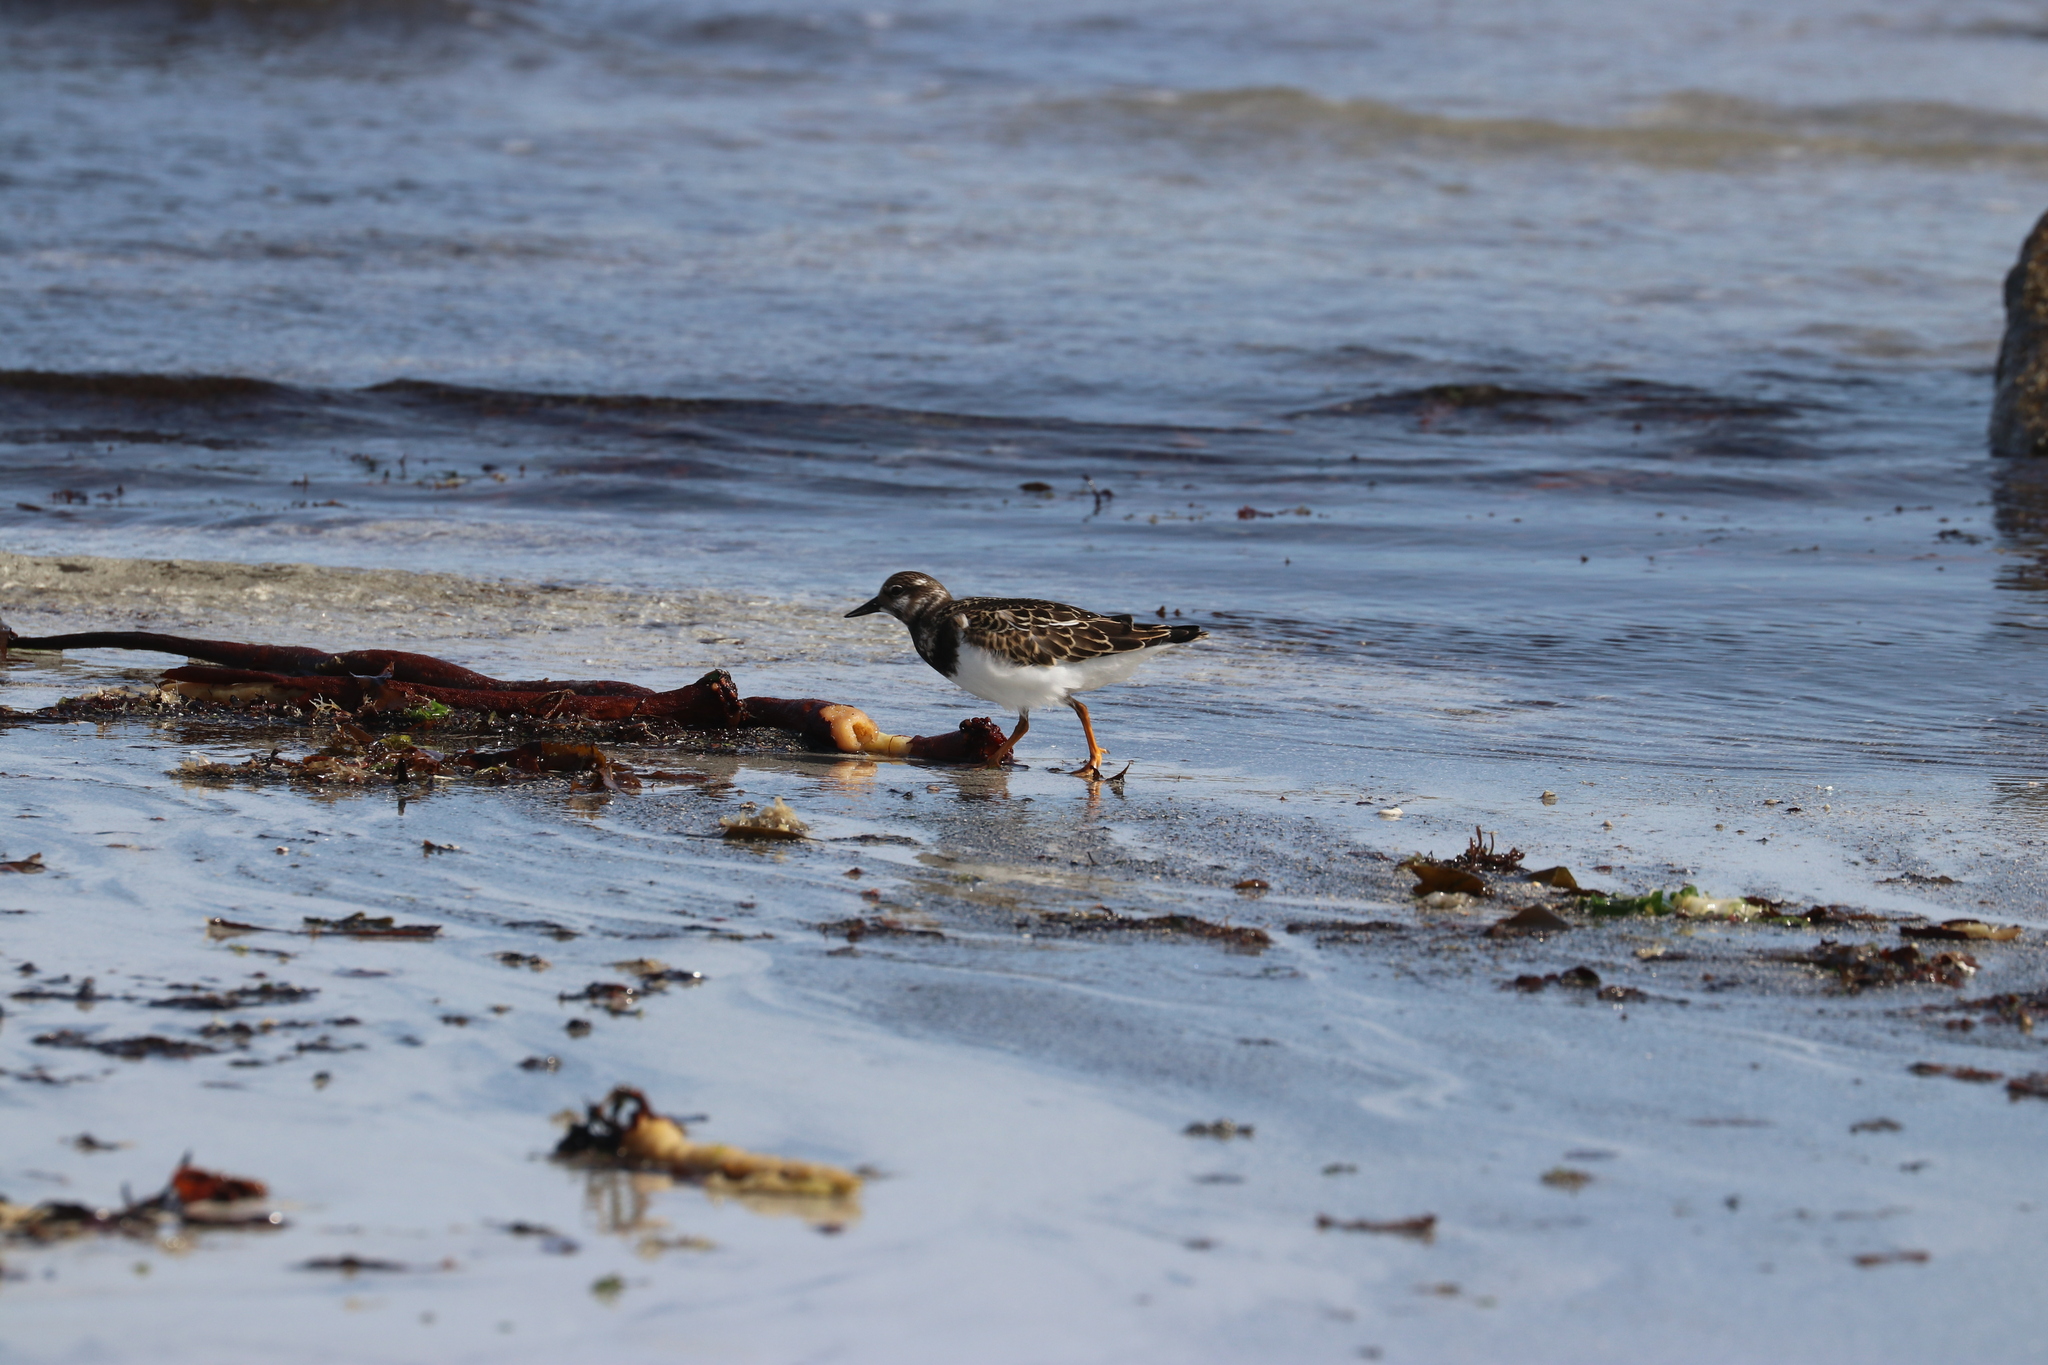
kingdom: Animalia
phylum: Chordata
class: Aves
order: Charadriiformes
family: Scolopacidae
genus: Arenaria
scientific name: Arenaria interpres
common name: Ruddy turnstone
